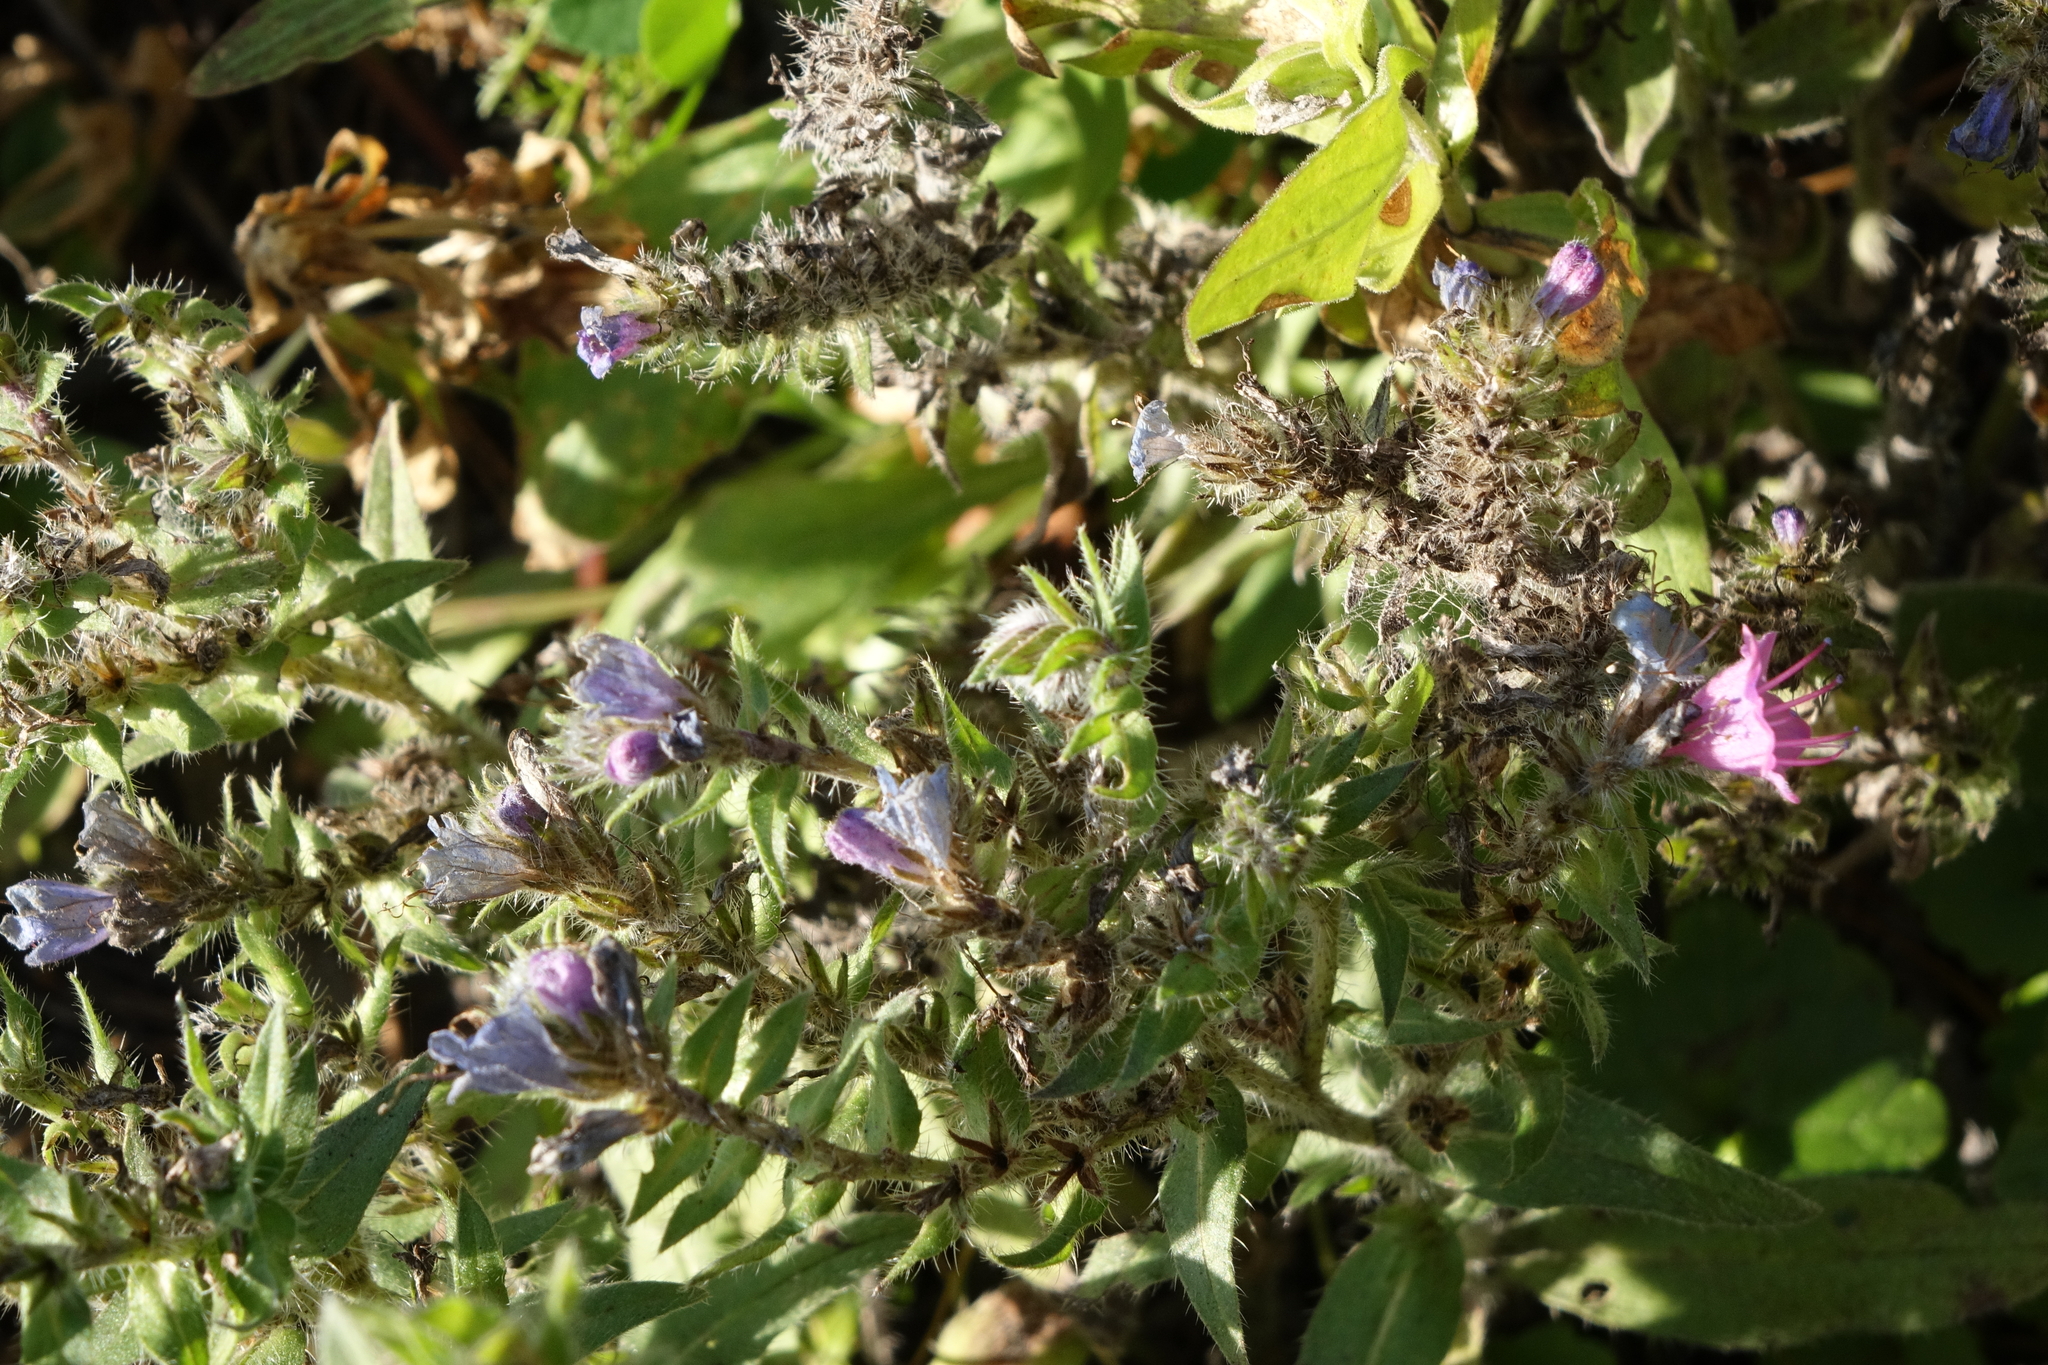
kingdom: Plantae
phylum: Tracheophyta
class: Magnoliopsida
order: Boraginales
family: Boraginaceae
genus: Echium
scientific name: Echium vulgare
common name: Common viper's bugloss
